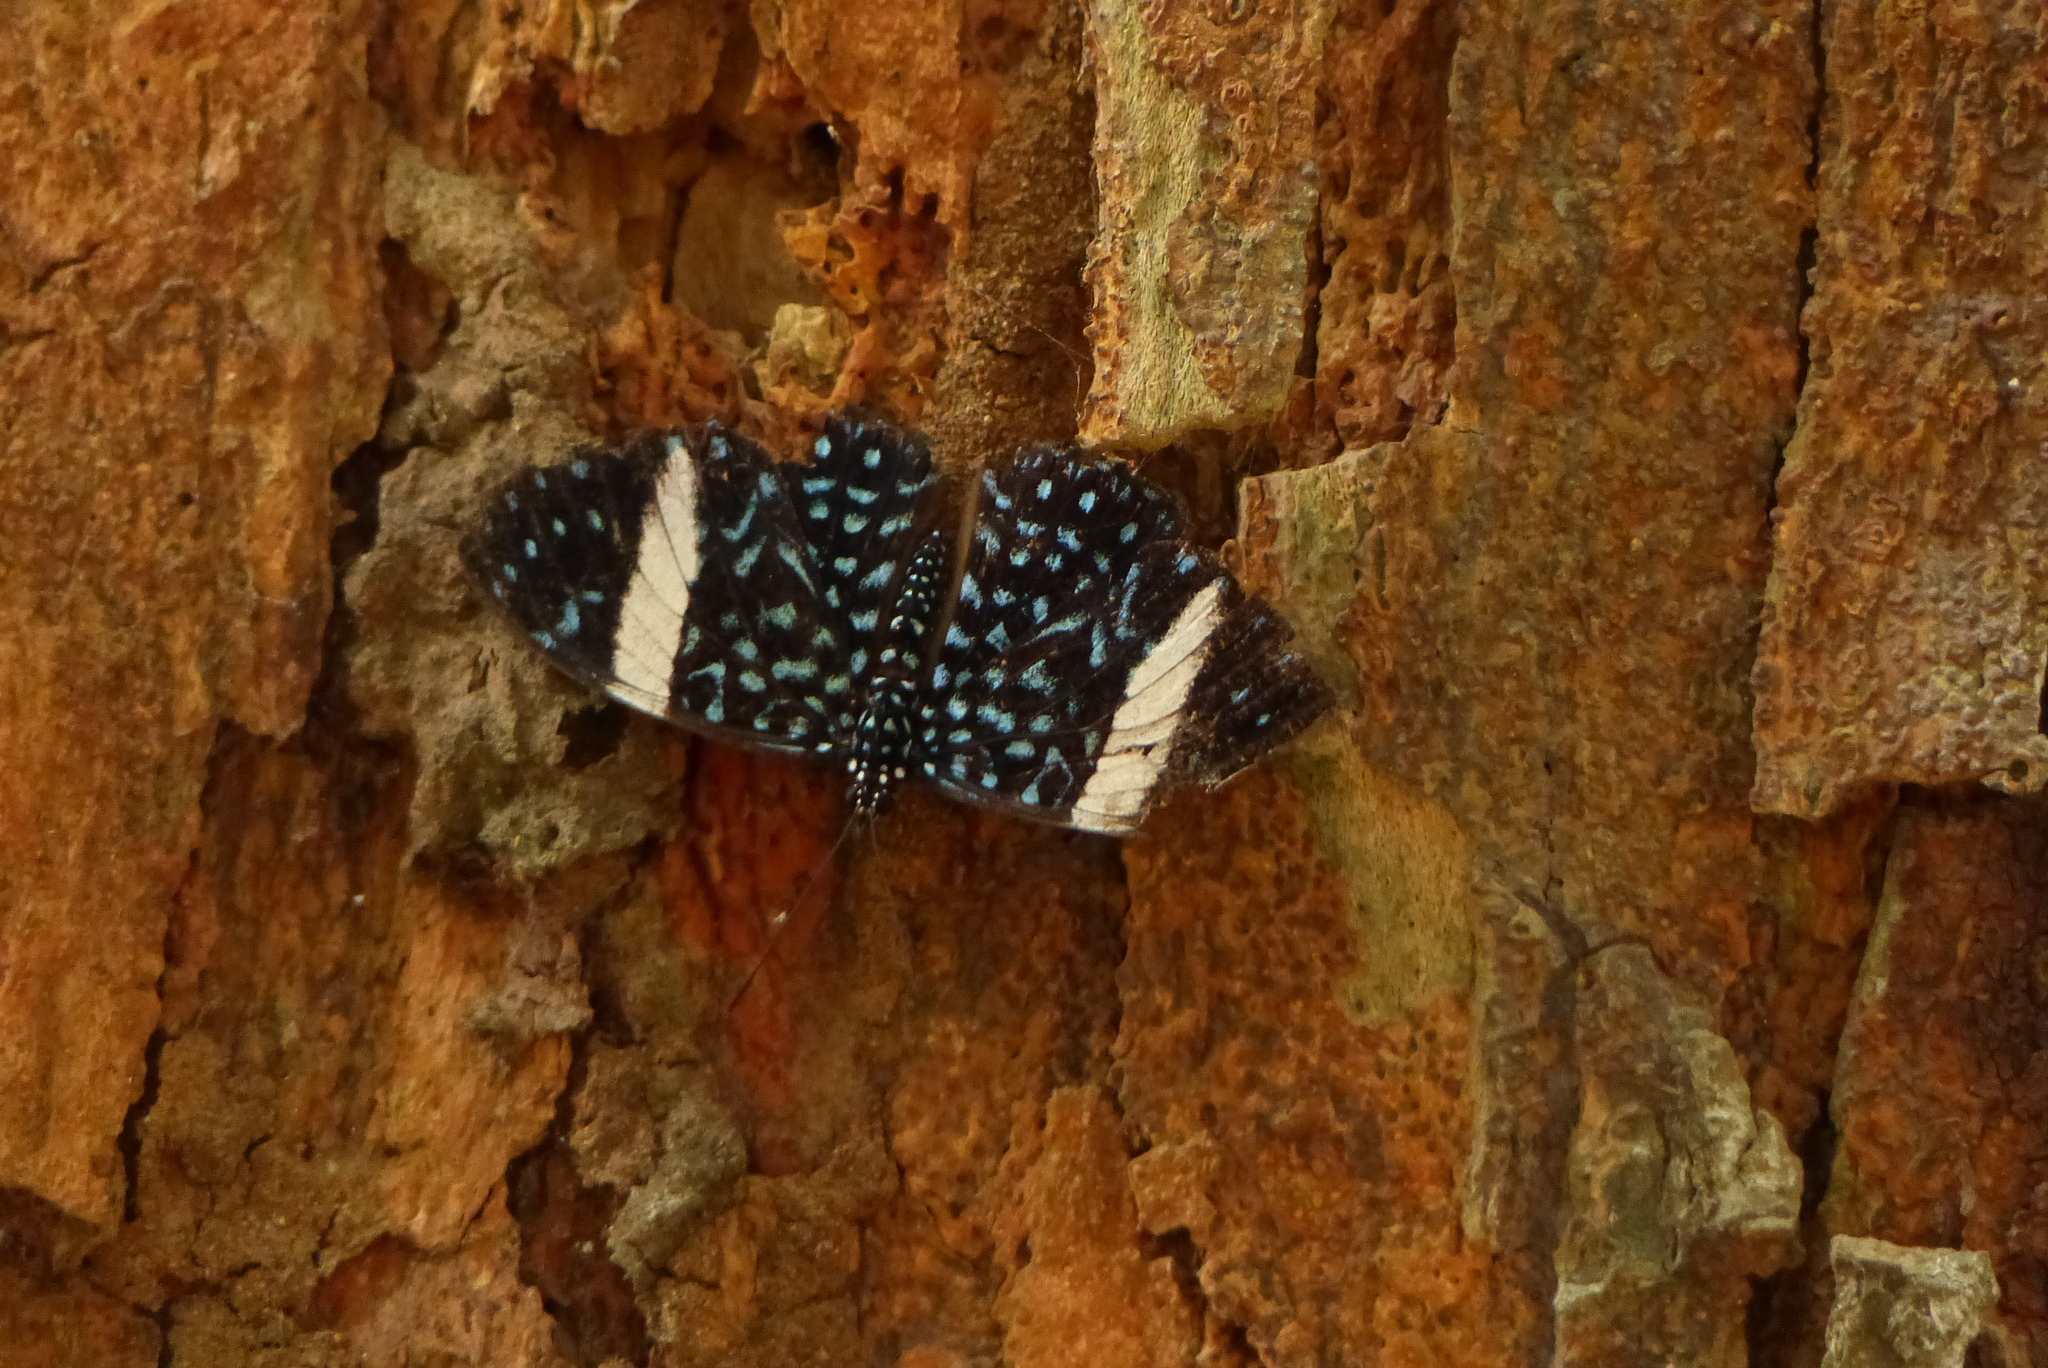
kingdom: Animalia
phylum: Arthropoda
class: Insecta
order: Lepidoptera
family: Nymphalidae
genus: Hamadryas
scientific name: Hamadryas laodamia
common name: Starry night cracker
